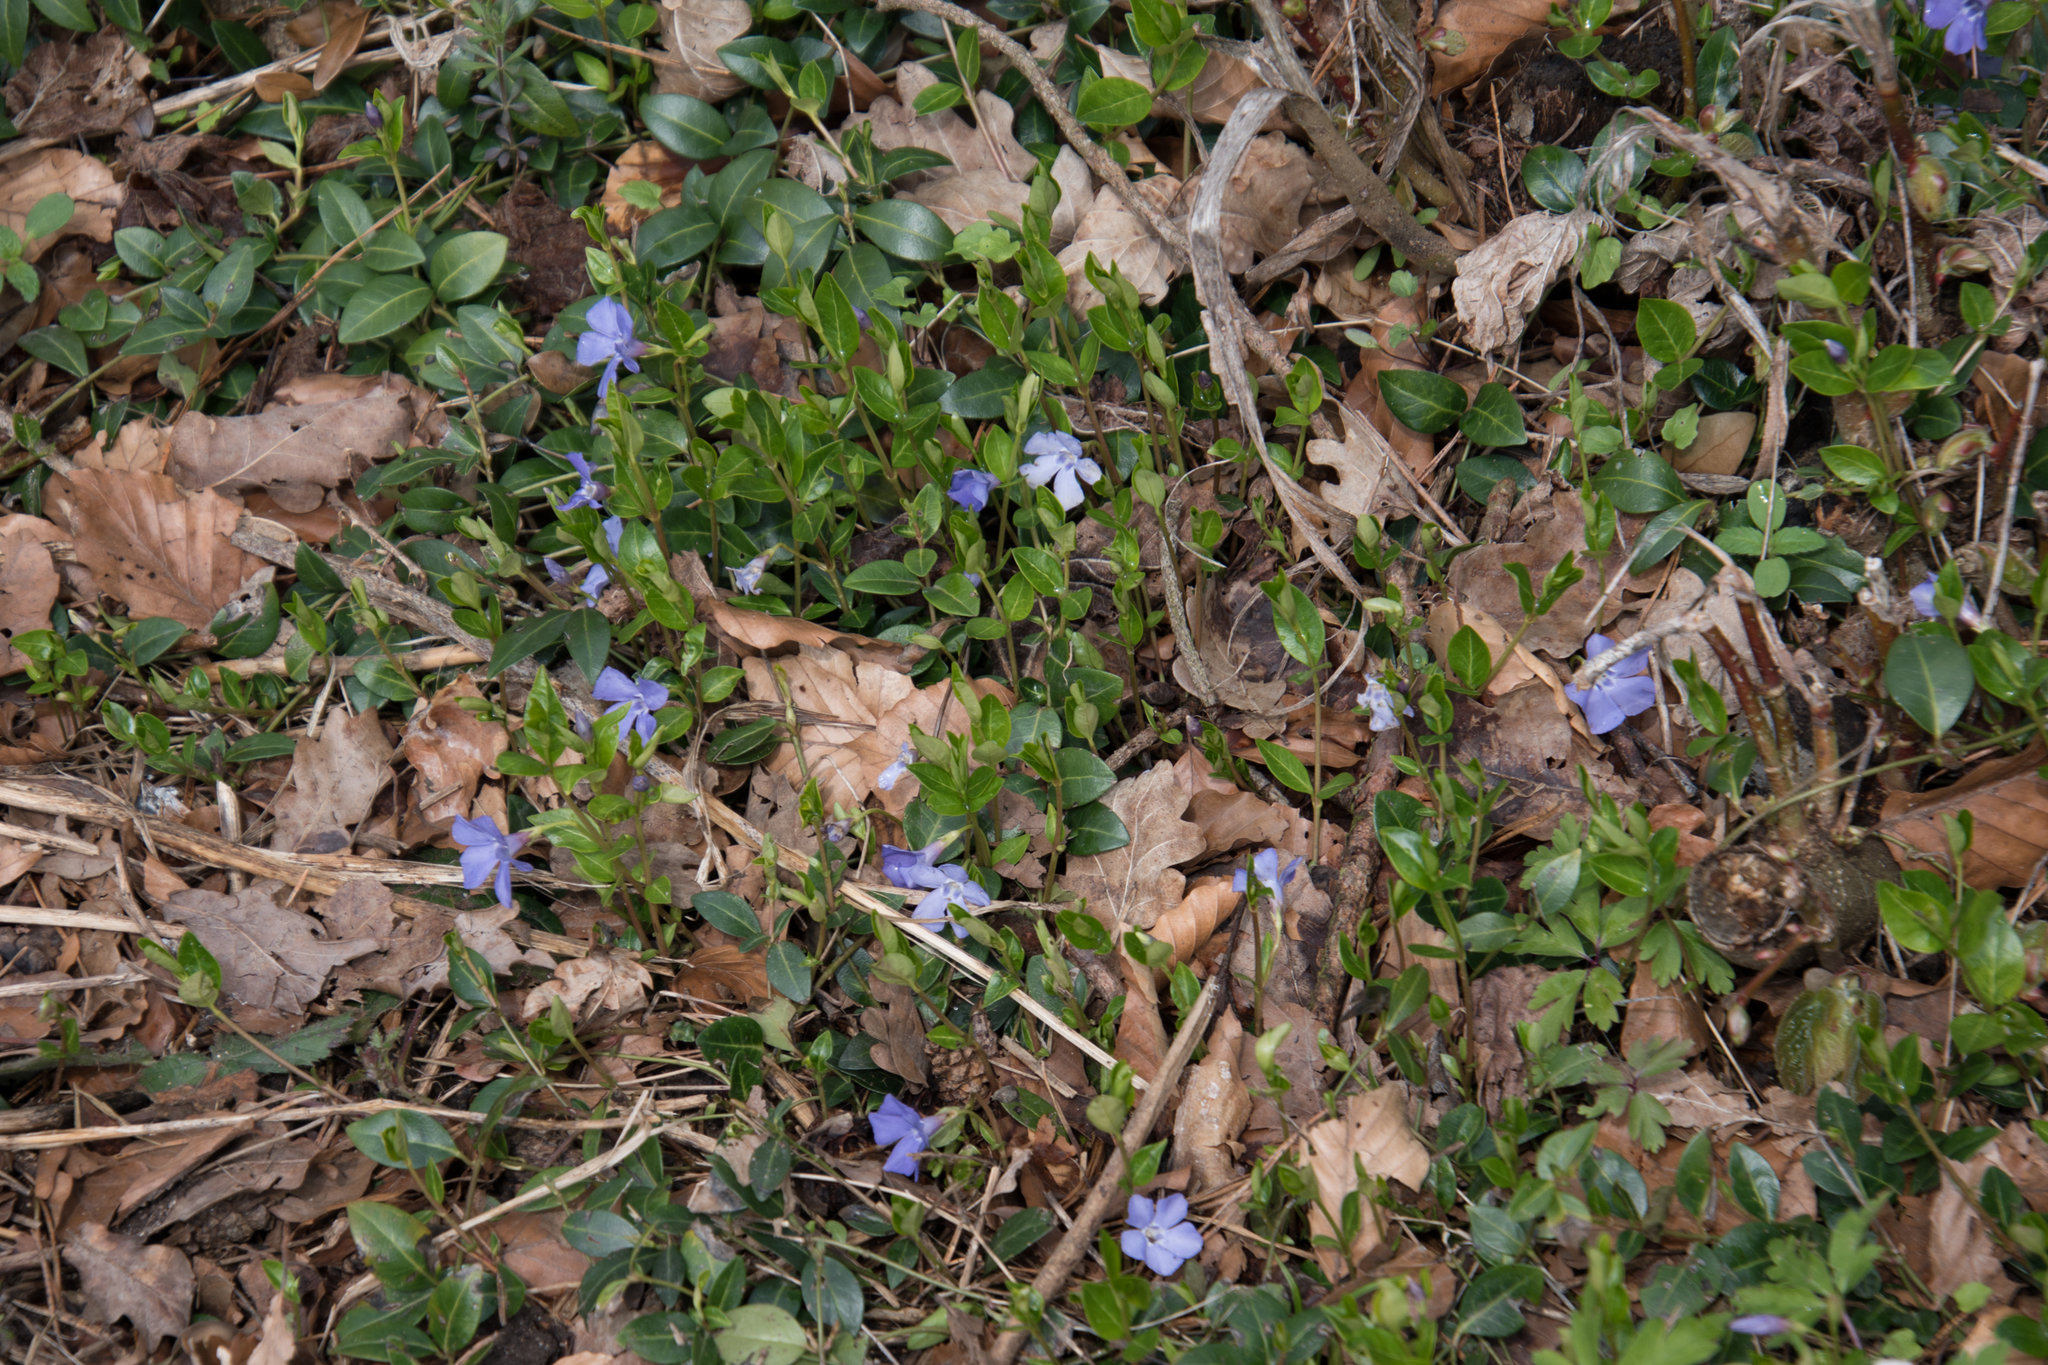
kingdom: Plantae
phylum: Tracheophyta
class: Magnoliopsida
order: Gentianales
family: Apocynaceae
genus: Vinca
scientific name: Vinca minor
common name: Lesser periwinkle
